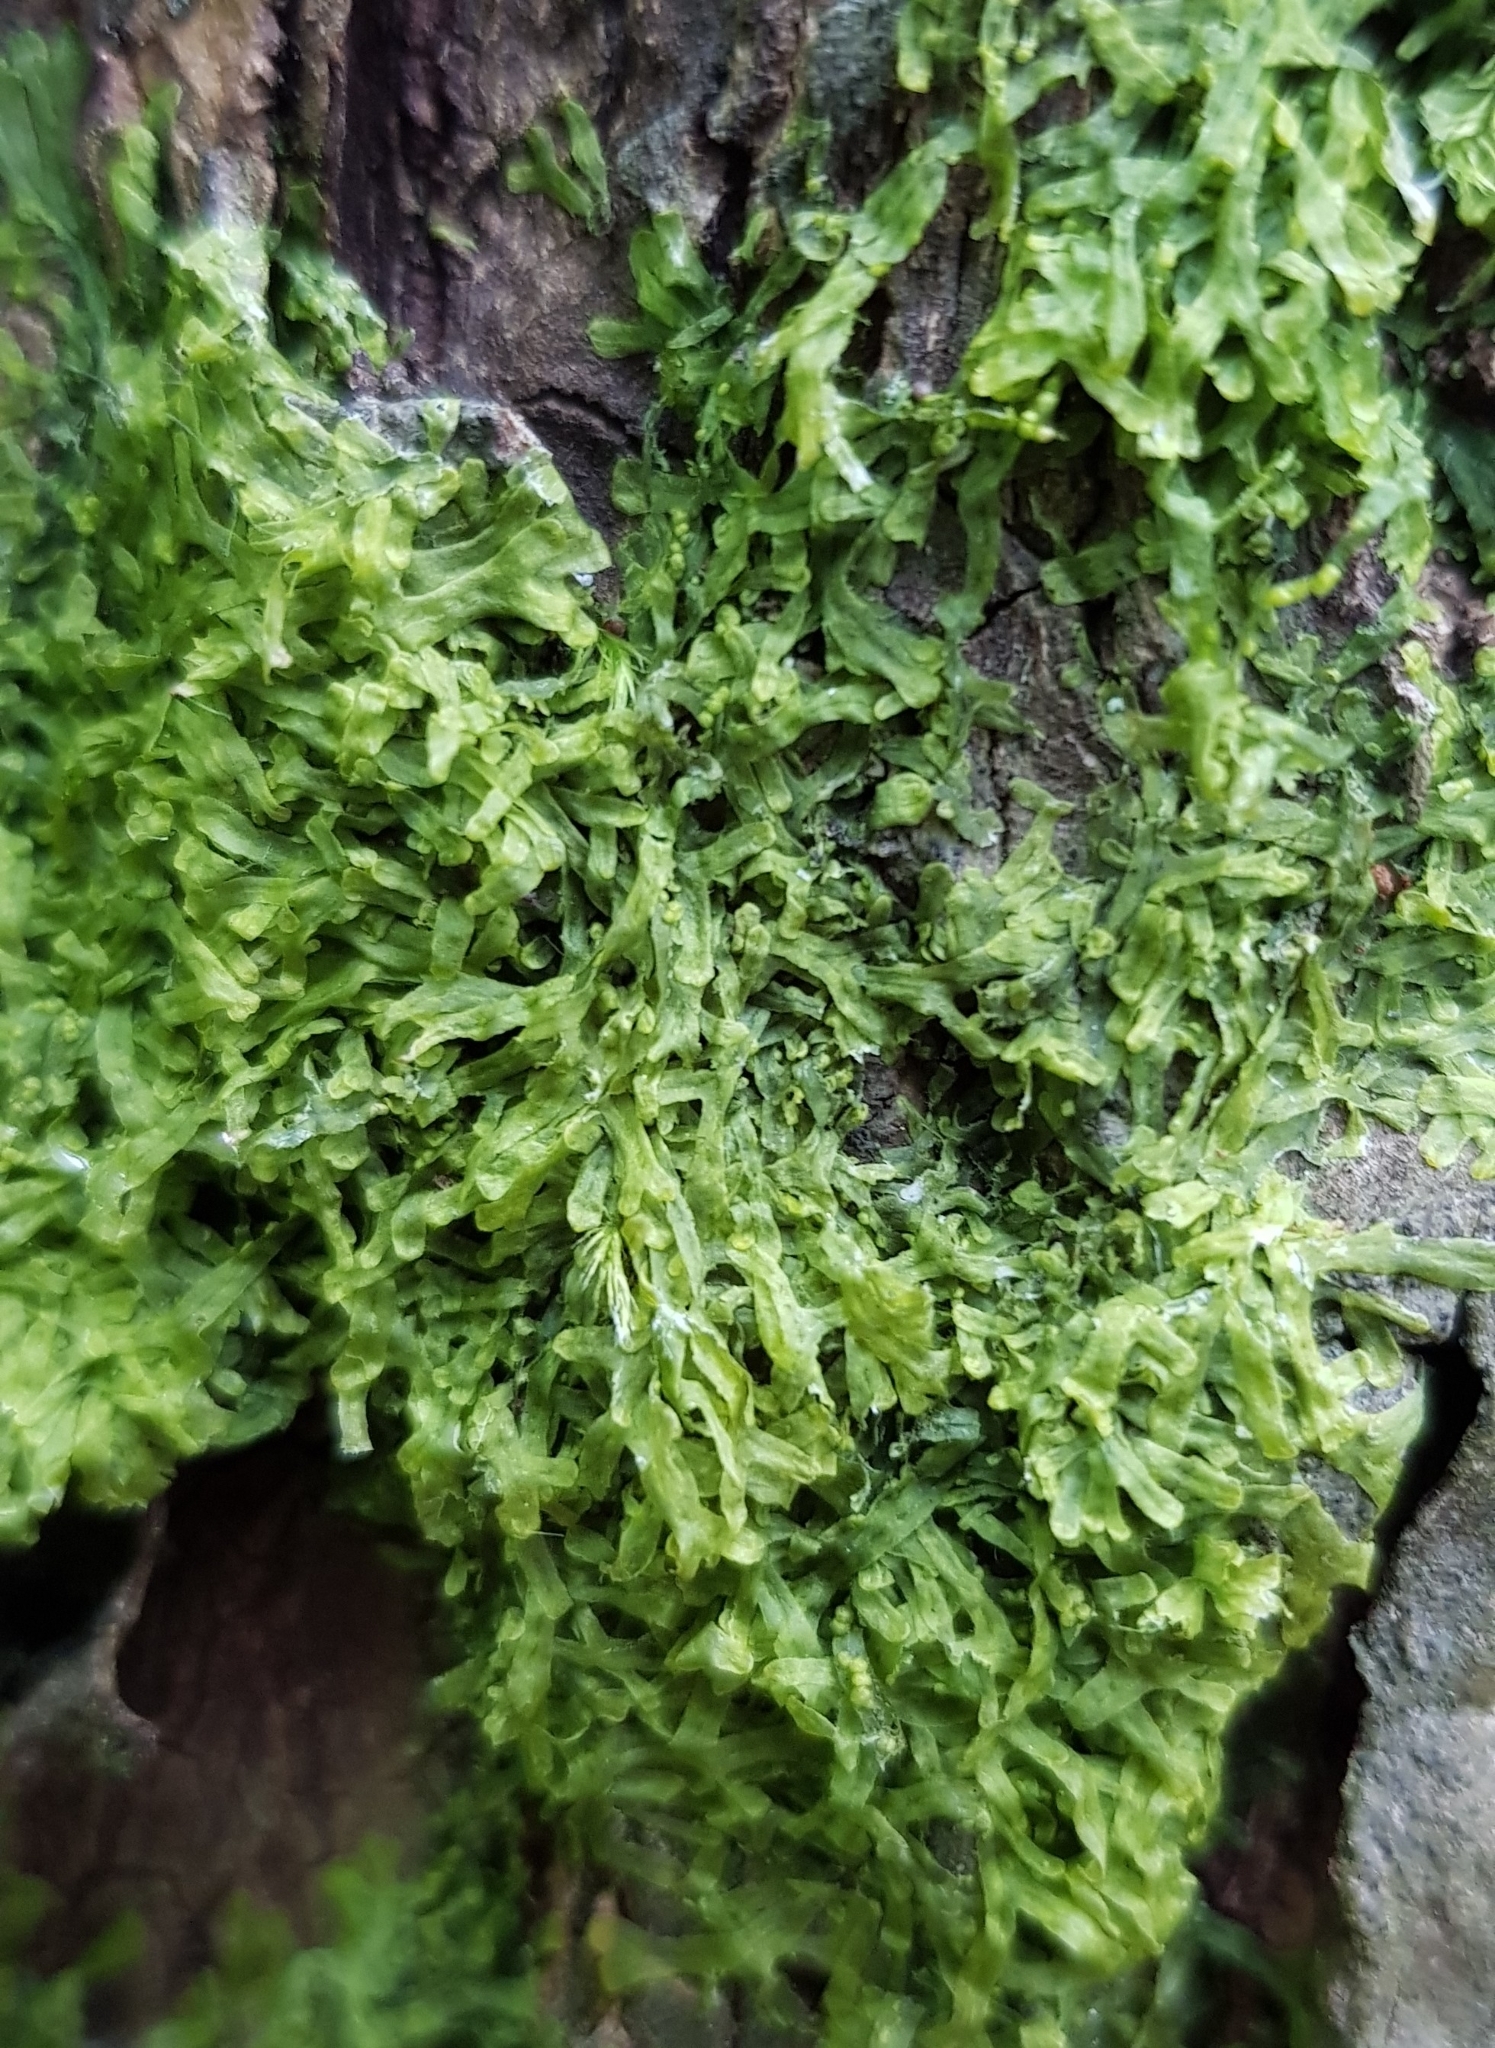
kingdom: Plantae
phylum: Marchantiophyta
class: Jungermanniopsida
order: Metzgeriales
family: Metzgeriaceae
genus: Metzgeria
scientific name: Metzgeria furcata
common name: Forked veilwort
